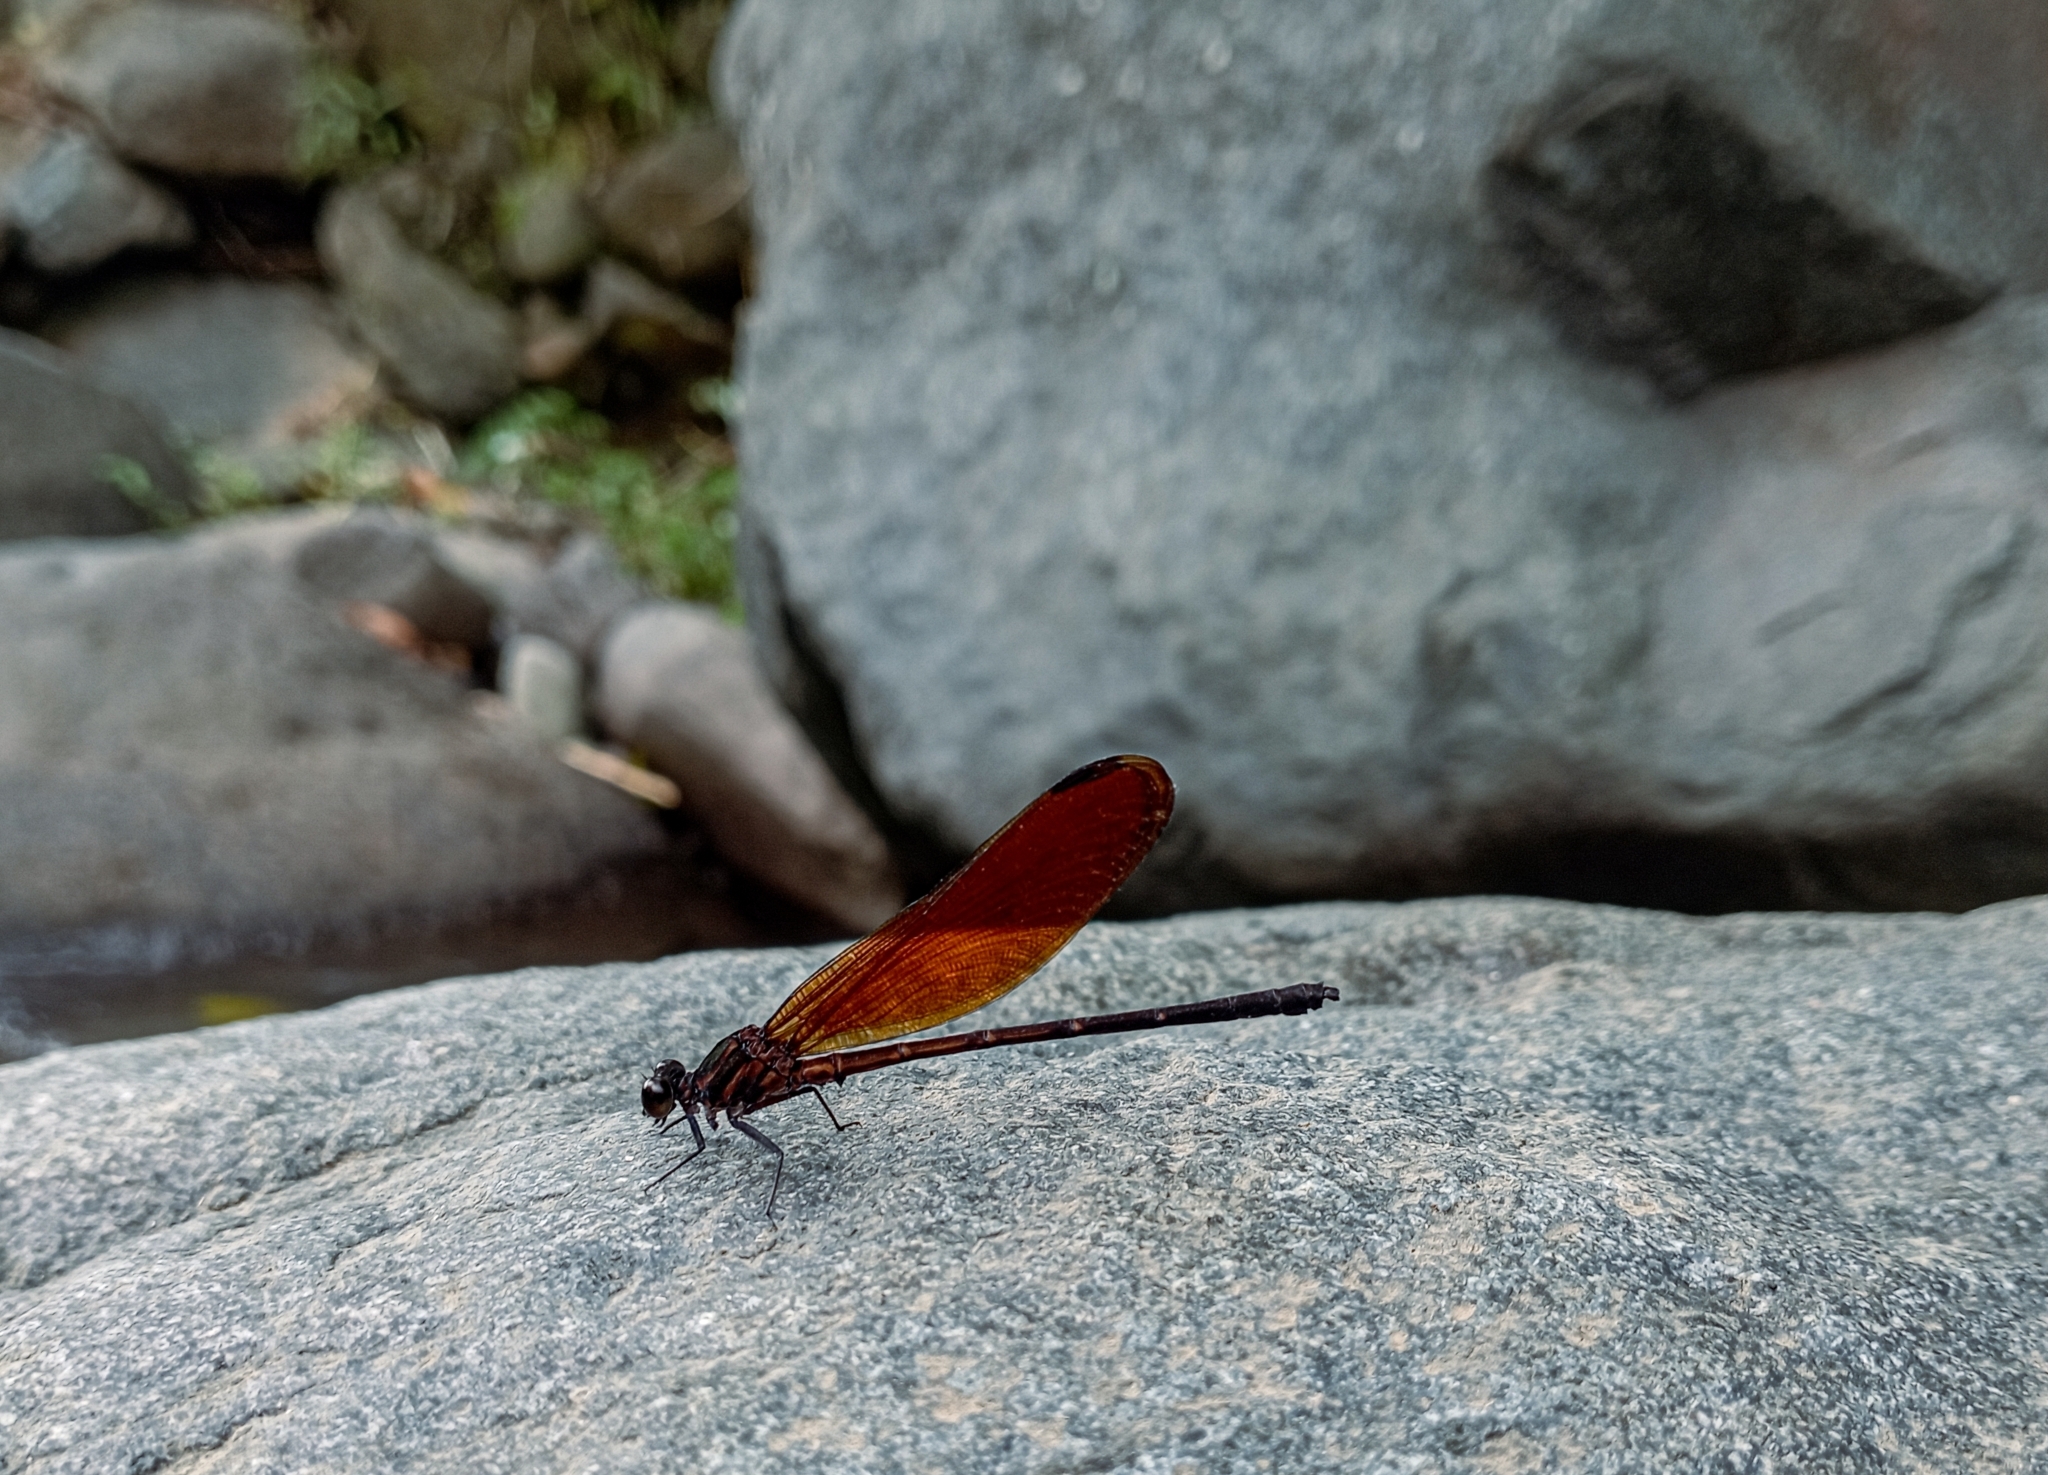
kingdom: Animalia
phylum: Arthropoda
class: Insecta
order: Odonata
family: Euphaeidae
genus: Euphaea
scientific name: Euphaea lara
